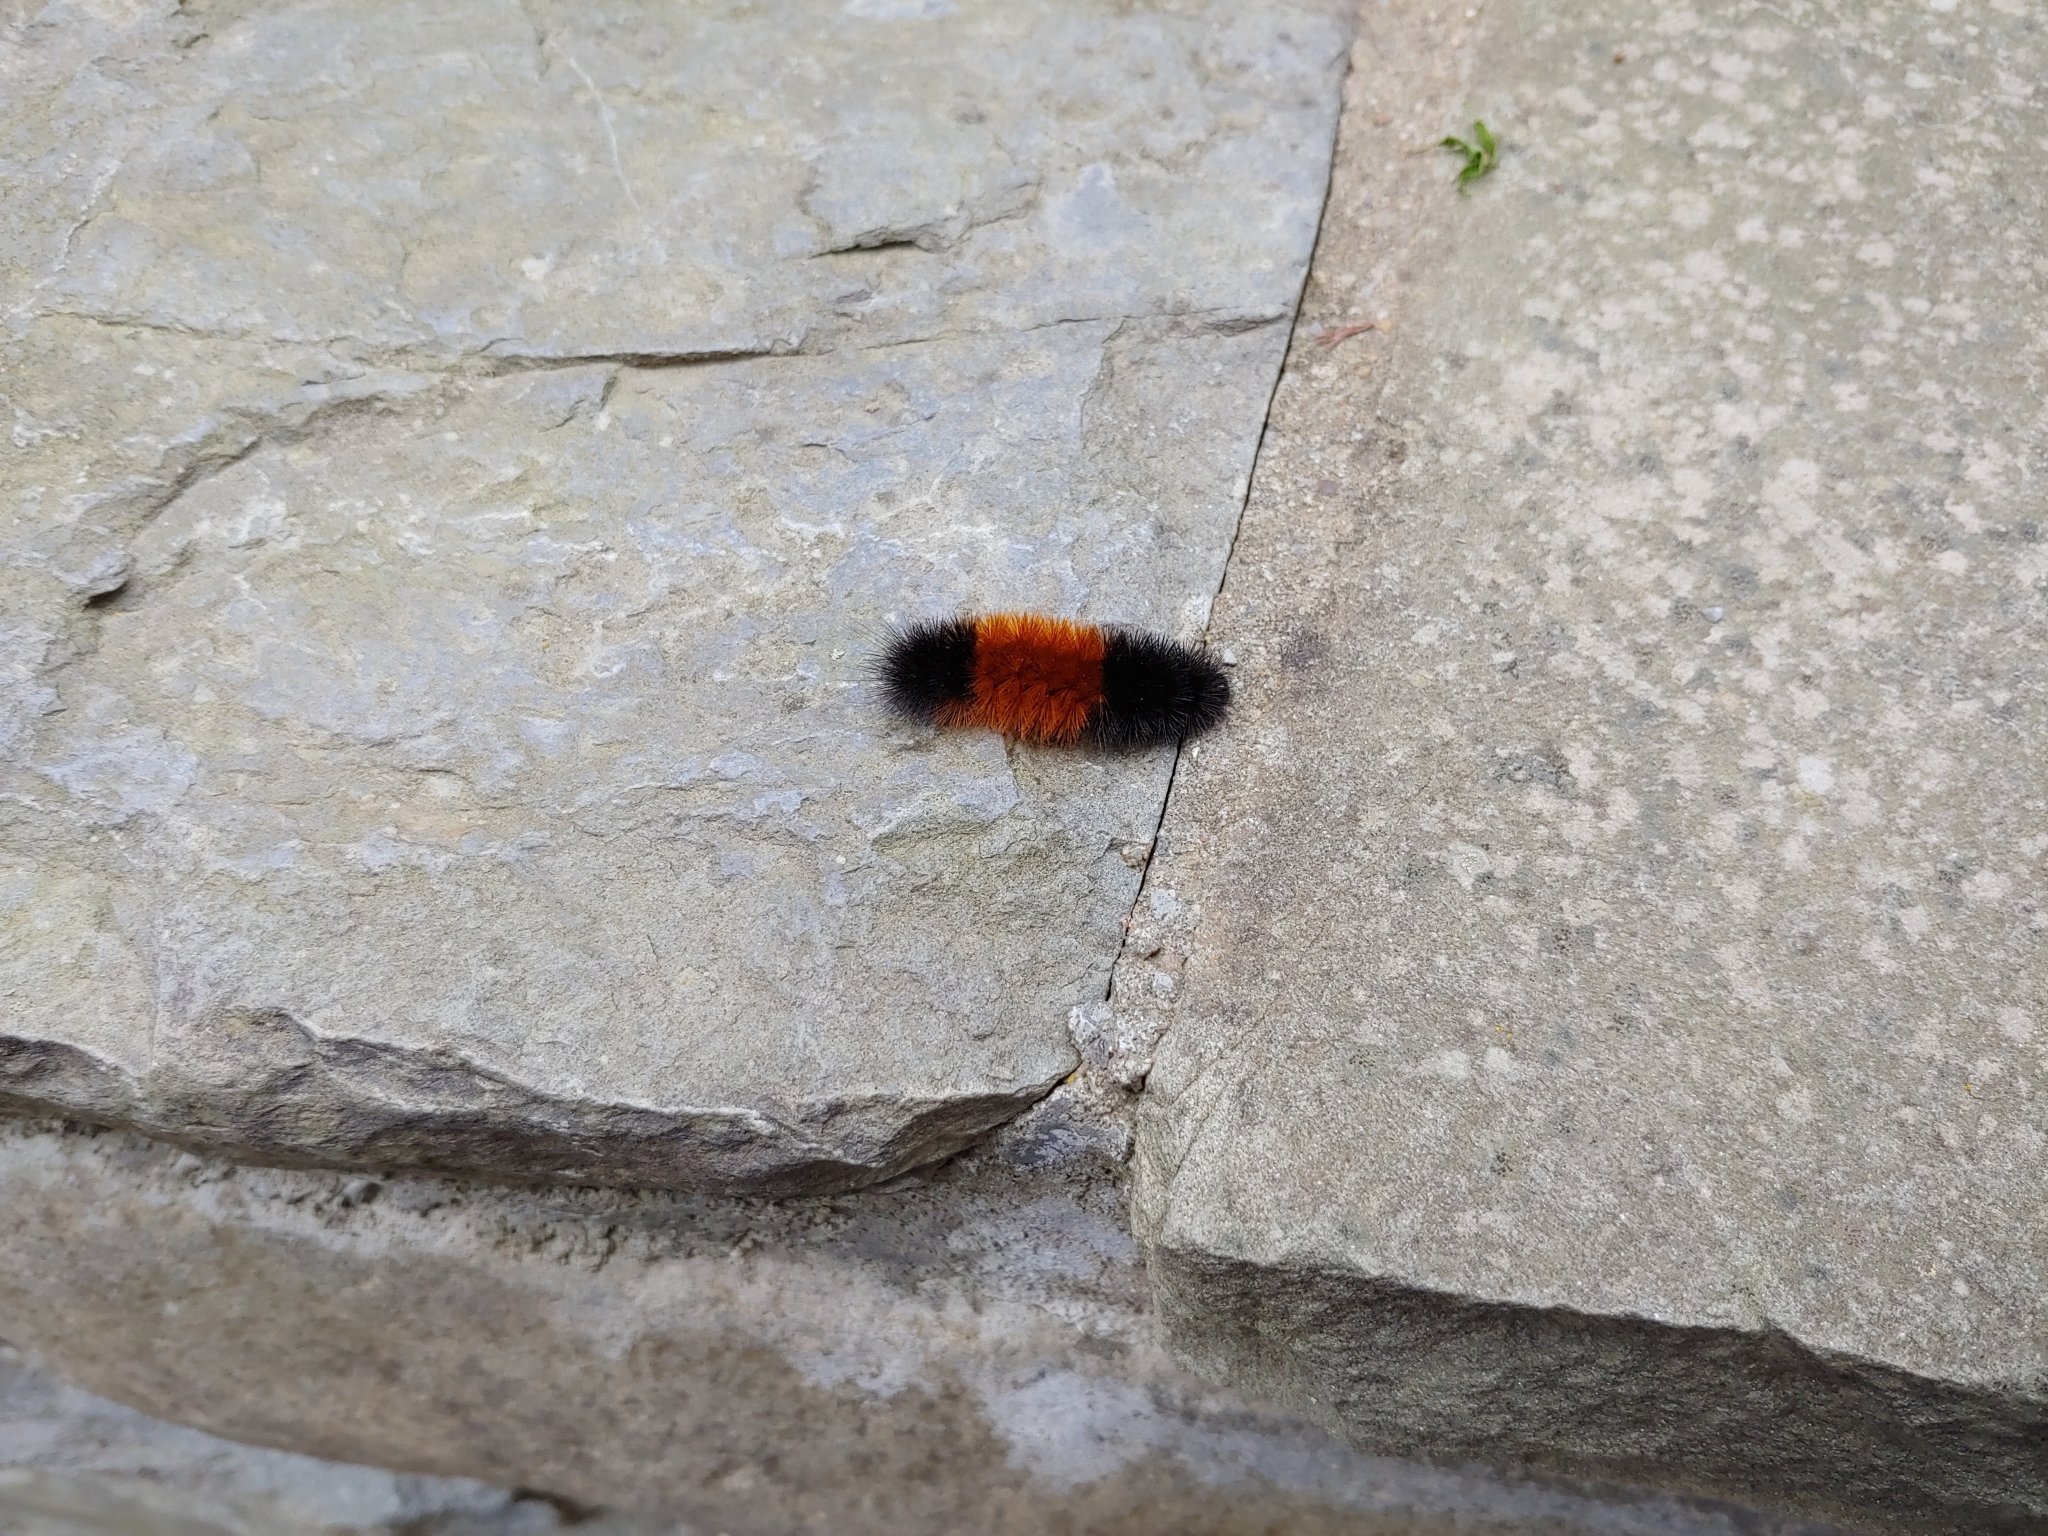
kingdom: Animalia
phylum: Arthropoda
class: Insecta
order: Lepidoptera
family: Erebidae
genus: Pyrrharctia
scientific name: Pyrrharctia isabella
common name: Isabella tiger moth
